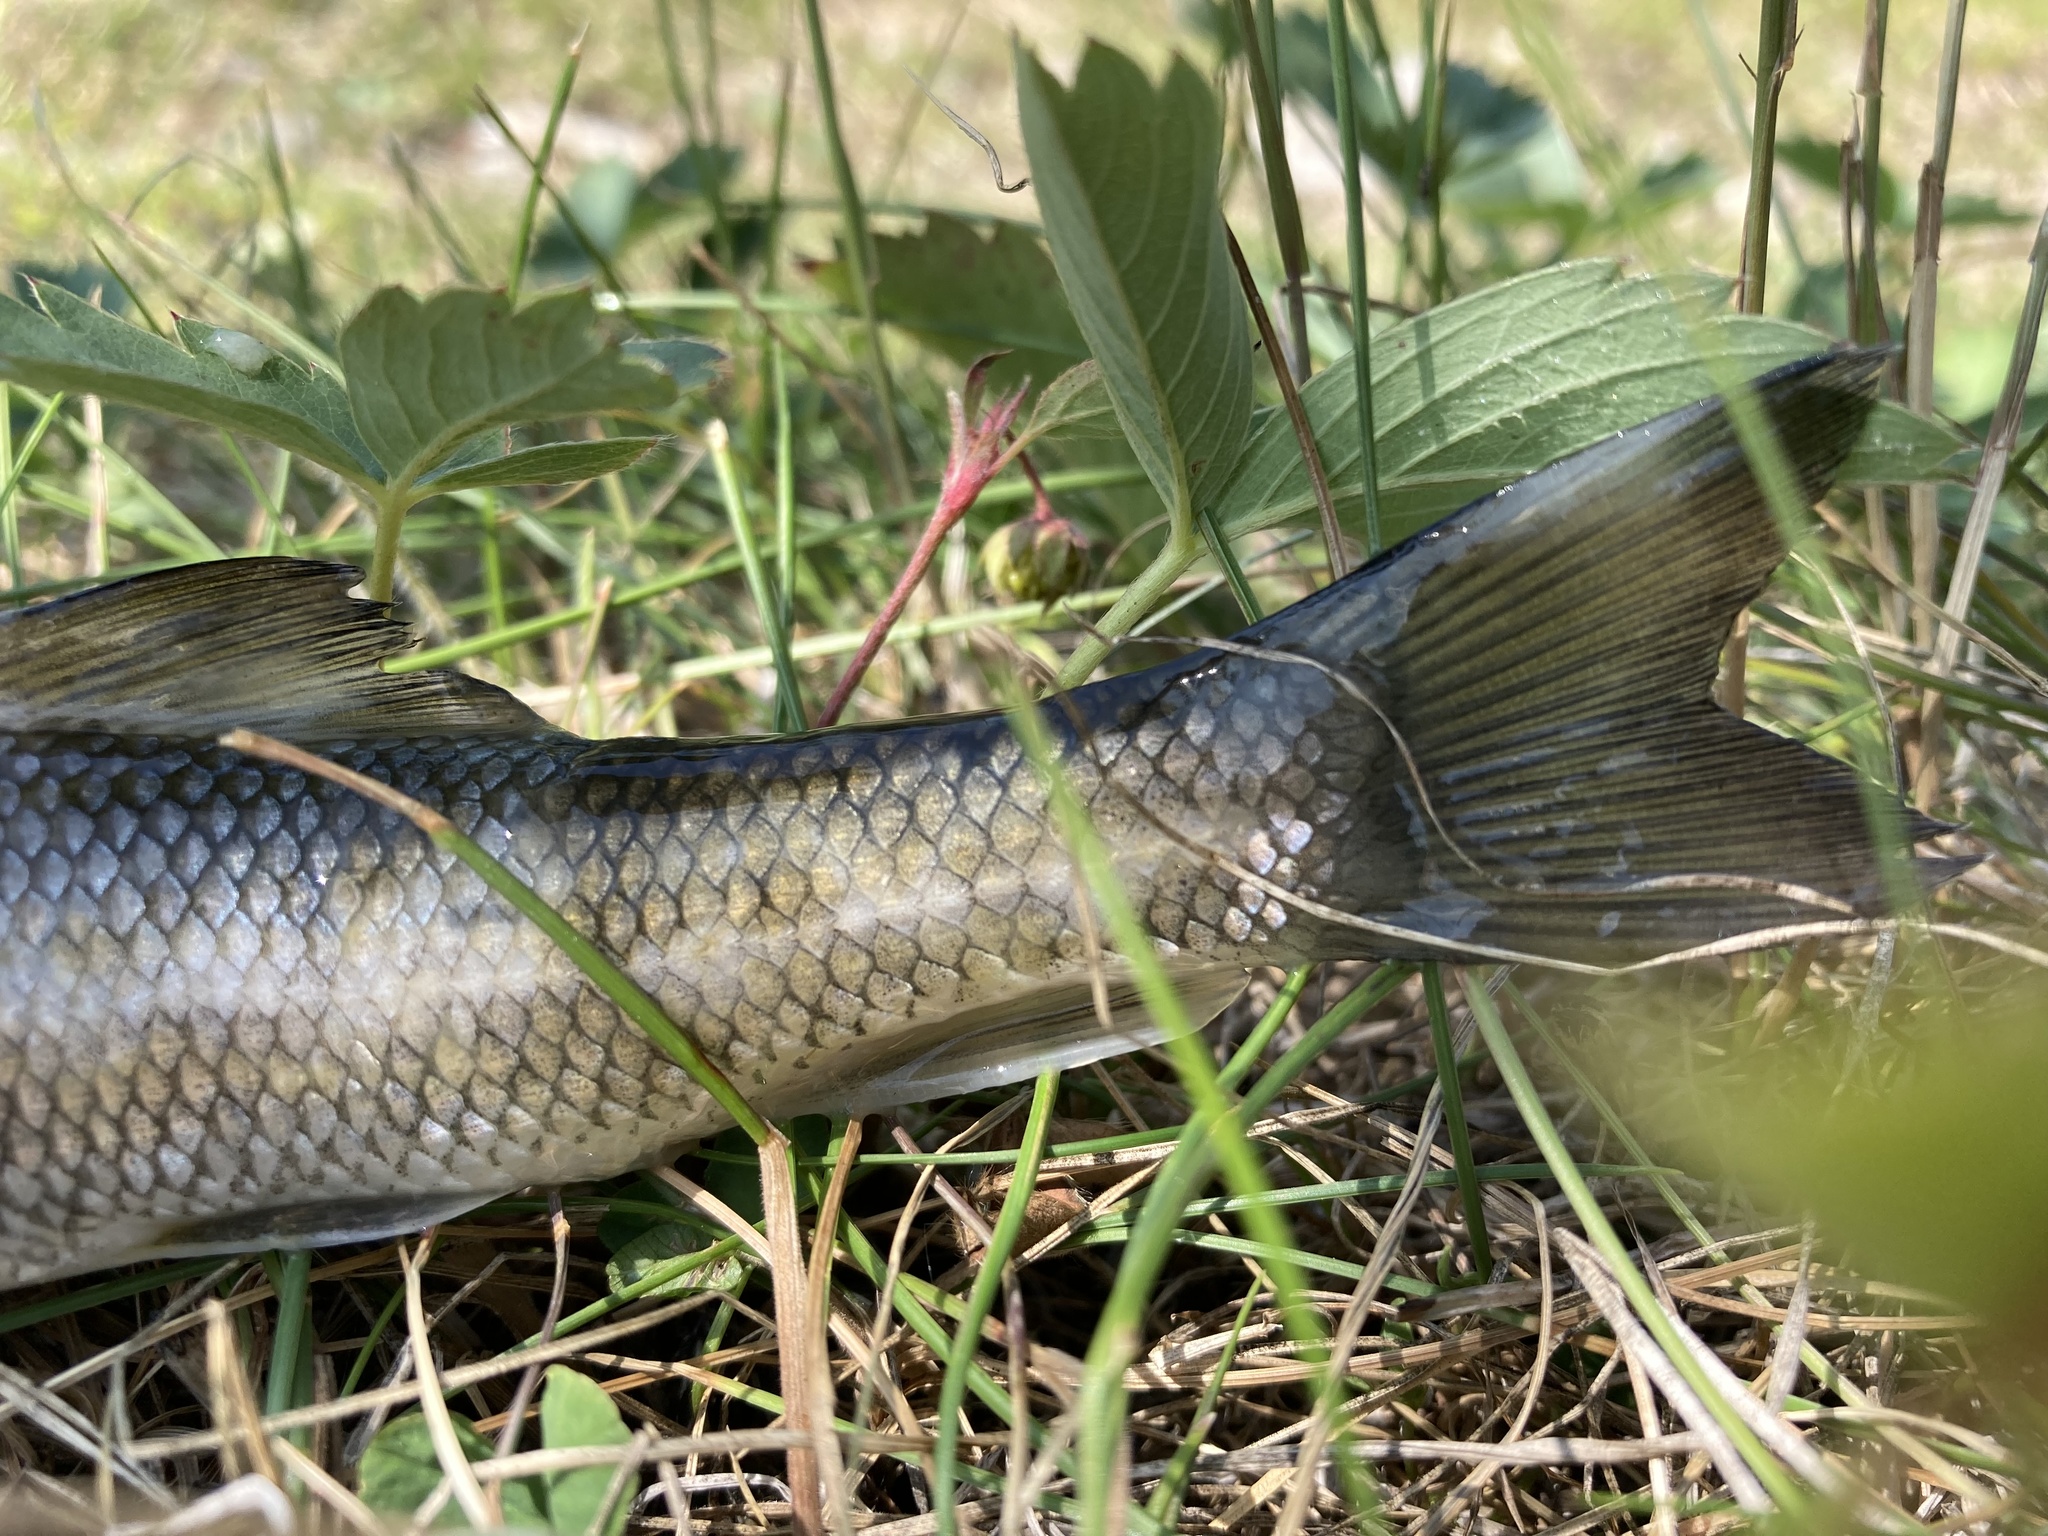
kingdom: Animalia
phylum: Chordata
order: Cypriniformes
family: Catostomidae
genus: Catostomus
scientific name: Catostomus commersonii
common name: White sucker
